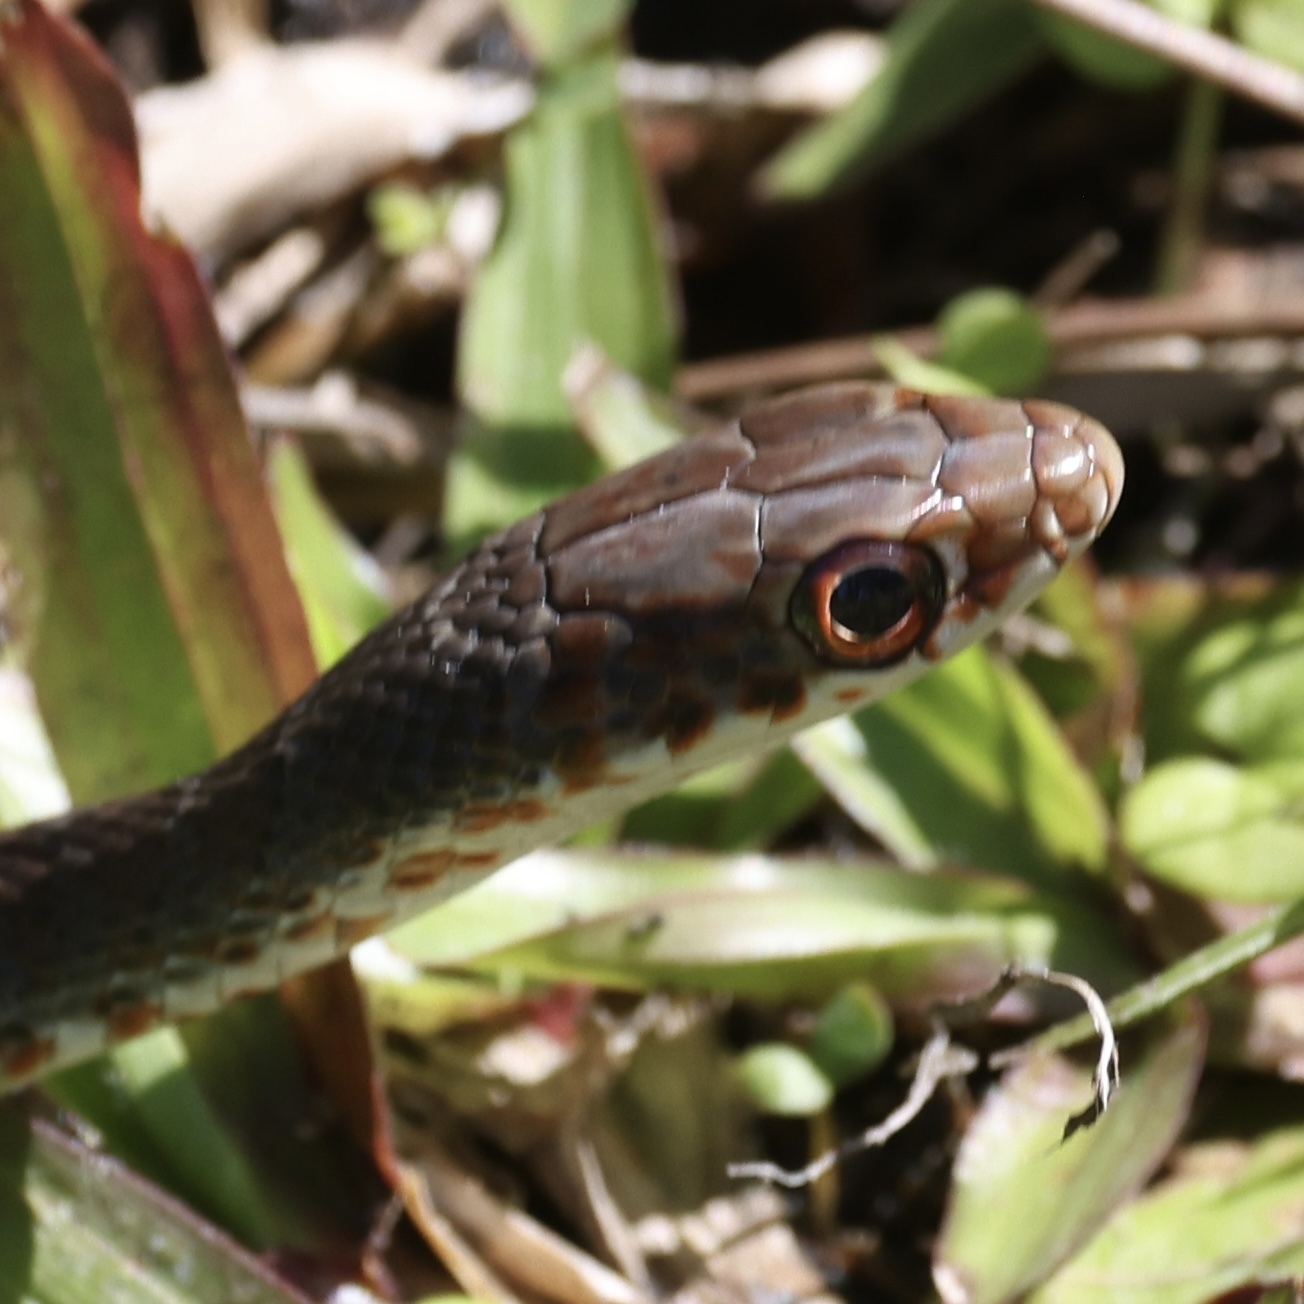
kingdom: Animalia
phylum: Chordata
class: Squamata
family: Colubridae
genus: Coluber
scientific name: Coluber constrictor
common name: Eastern racer
